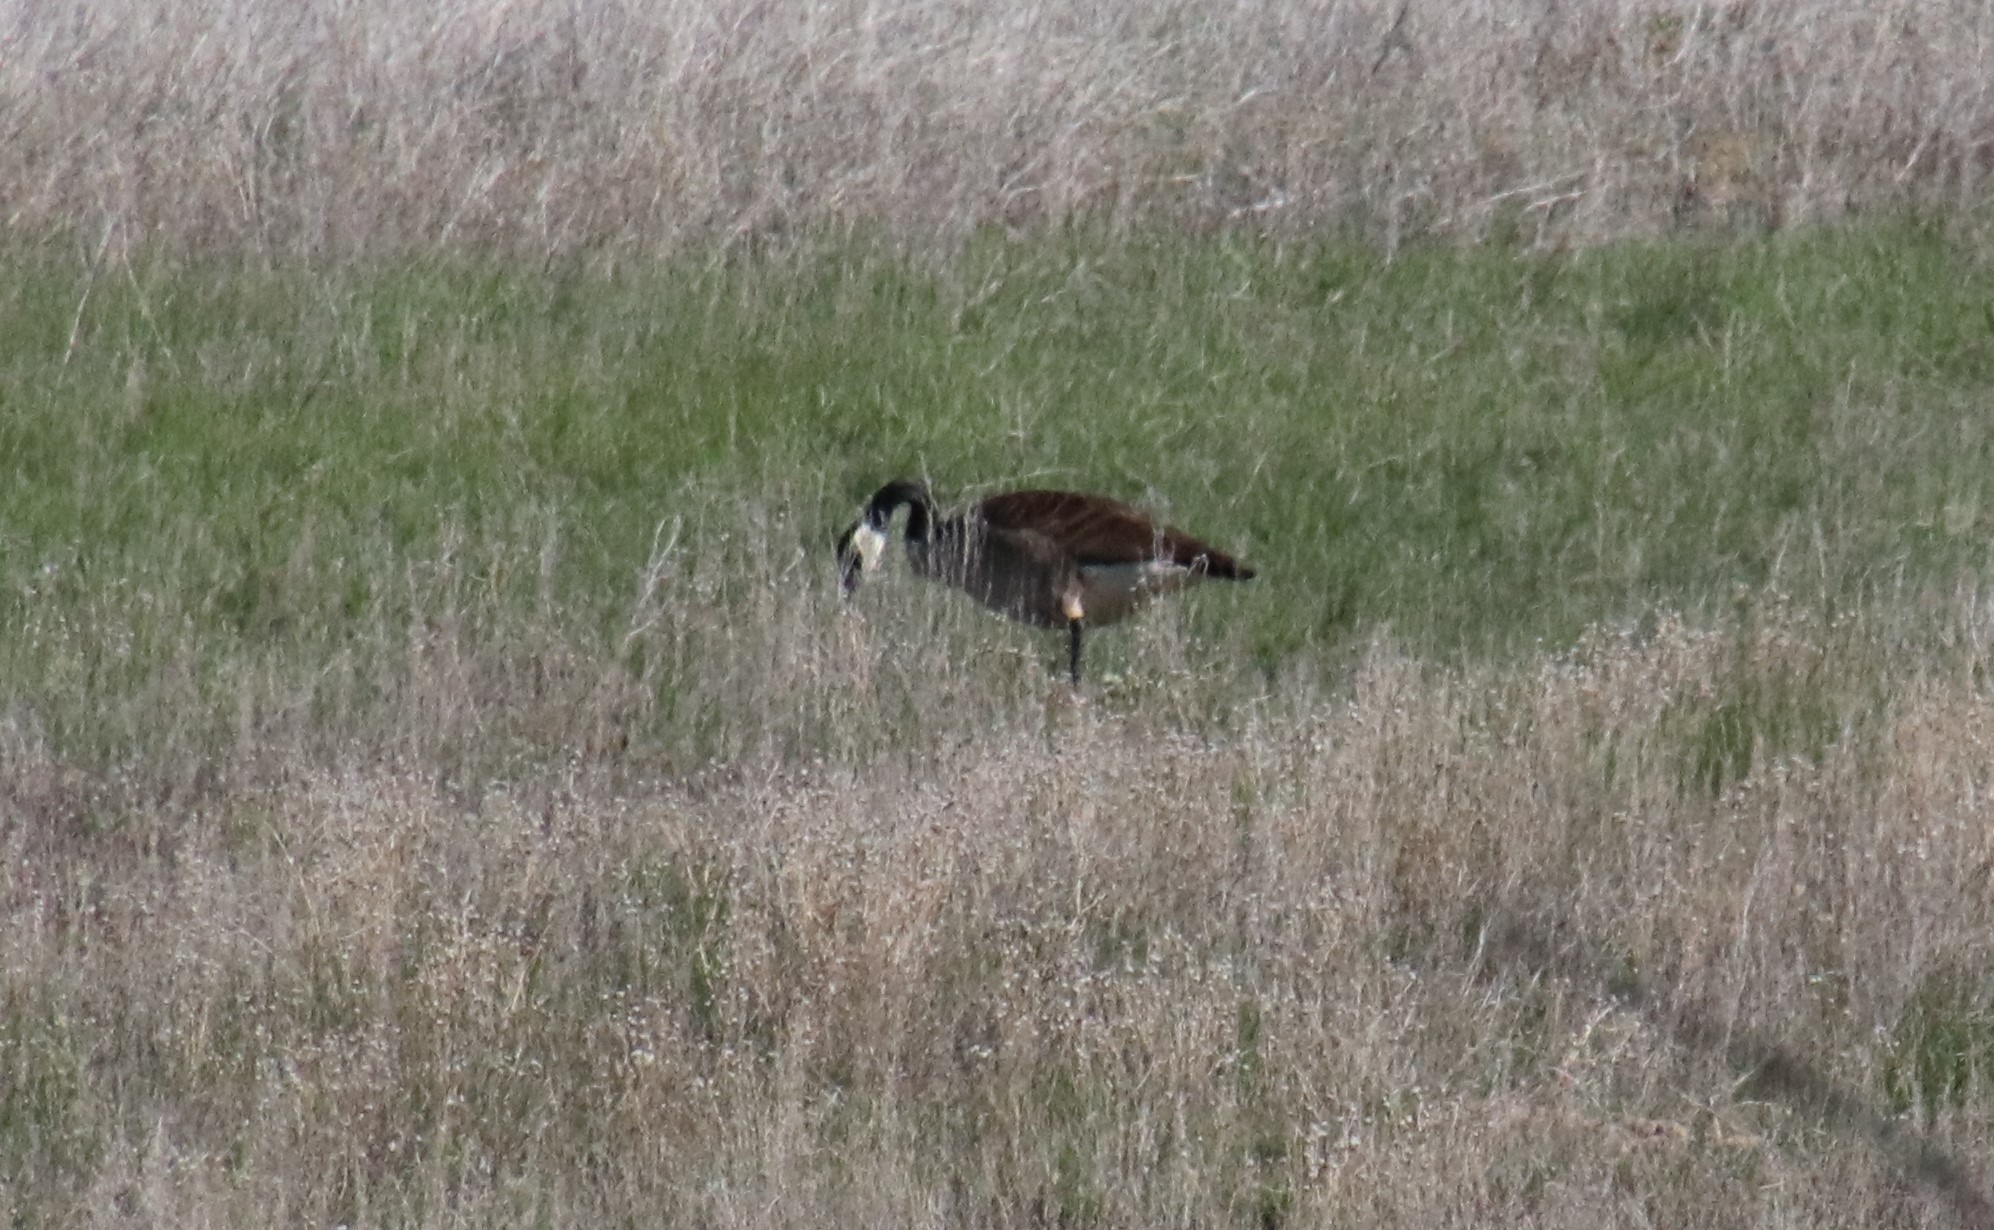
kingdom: Animalia
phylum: Chordata
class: Aves
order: Anseriformes
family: Anatidae
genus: Branta
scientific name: Branta canadensis
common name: Canada goose
